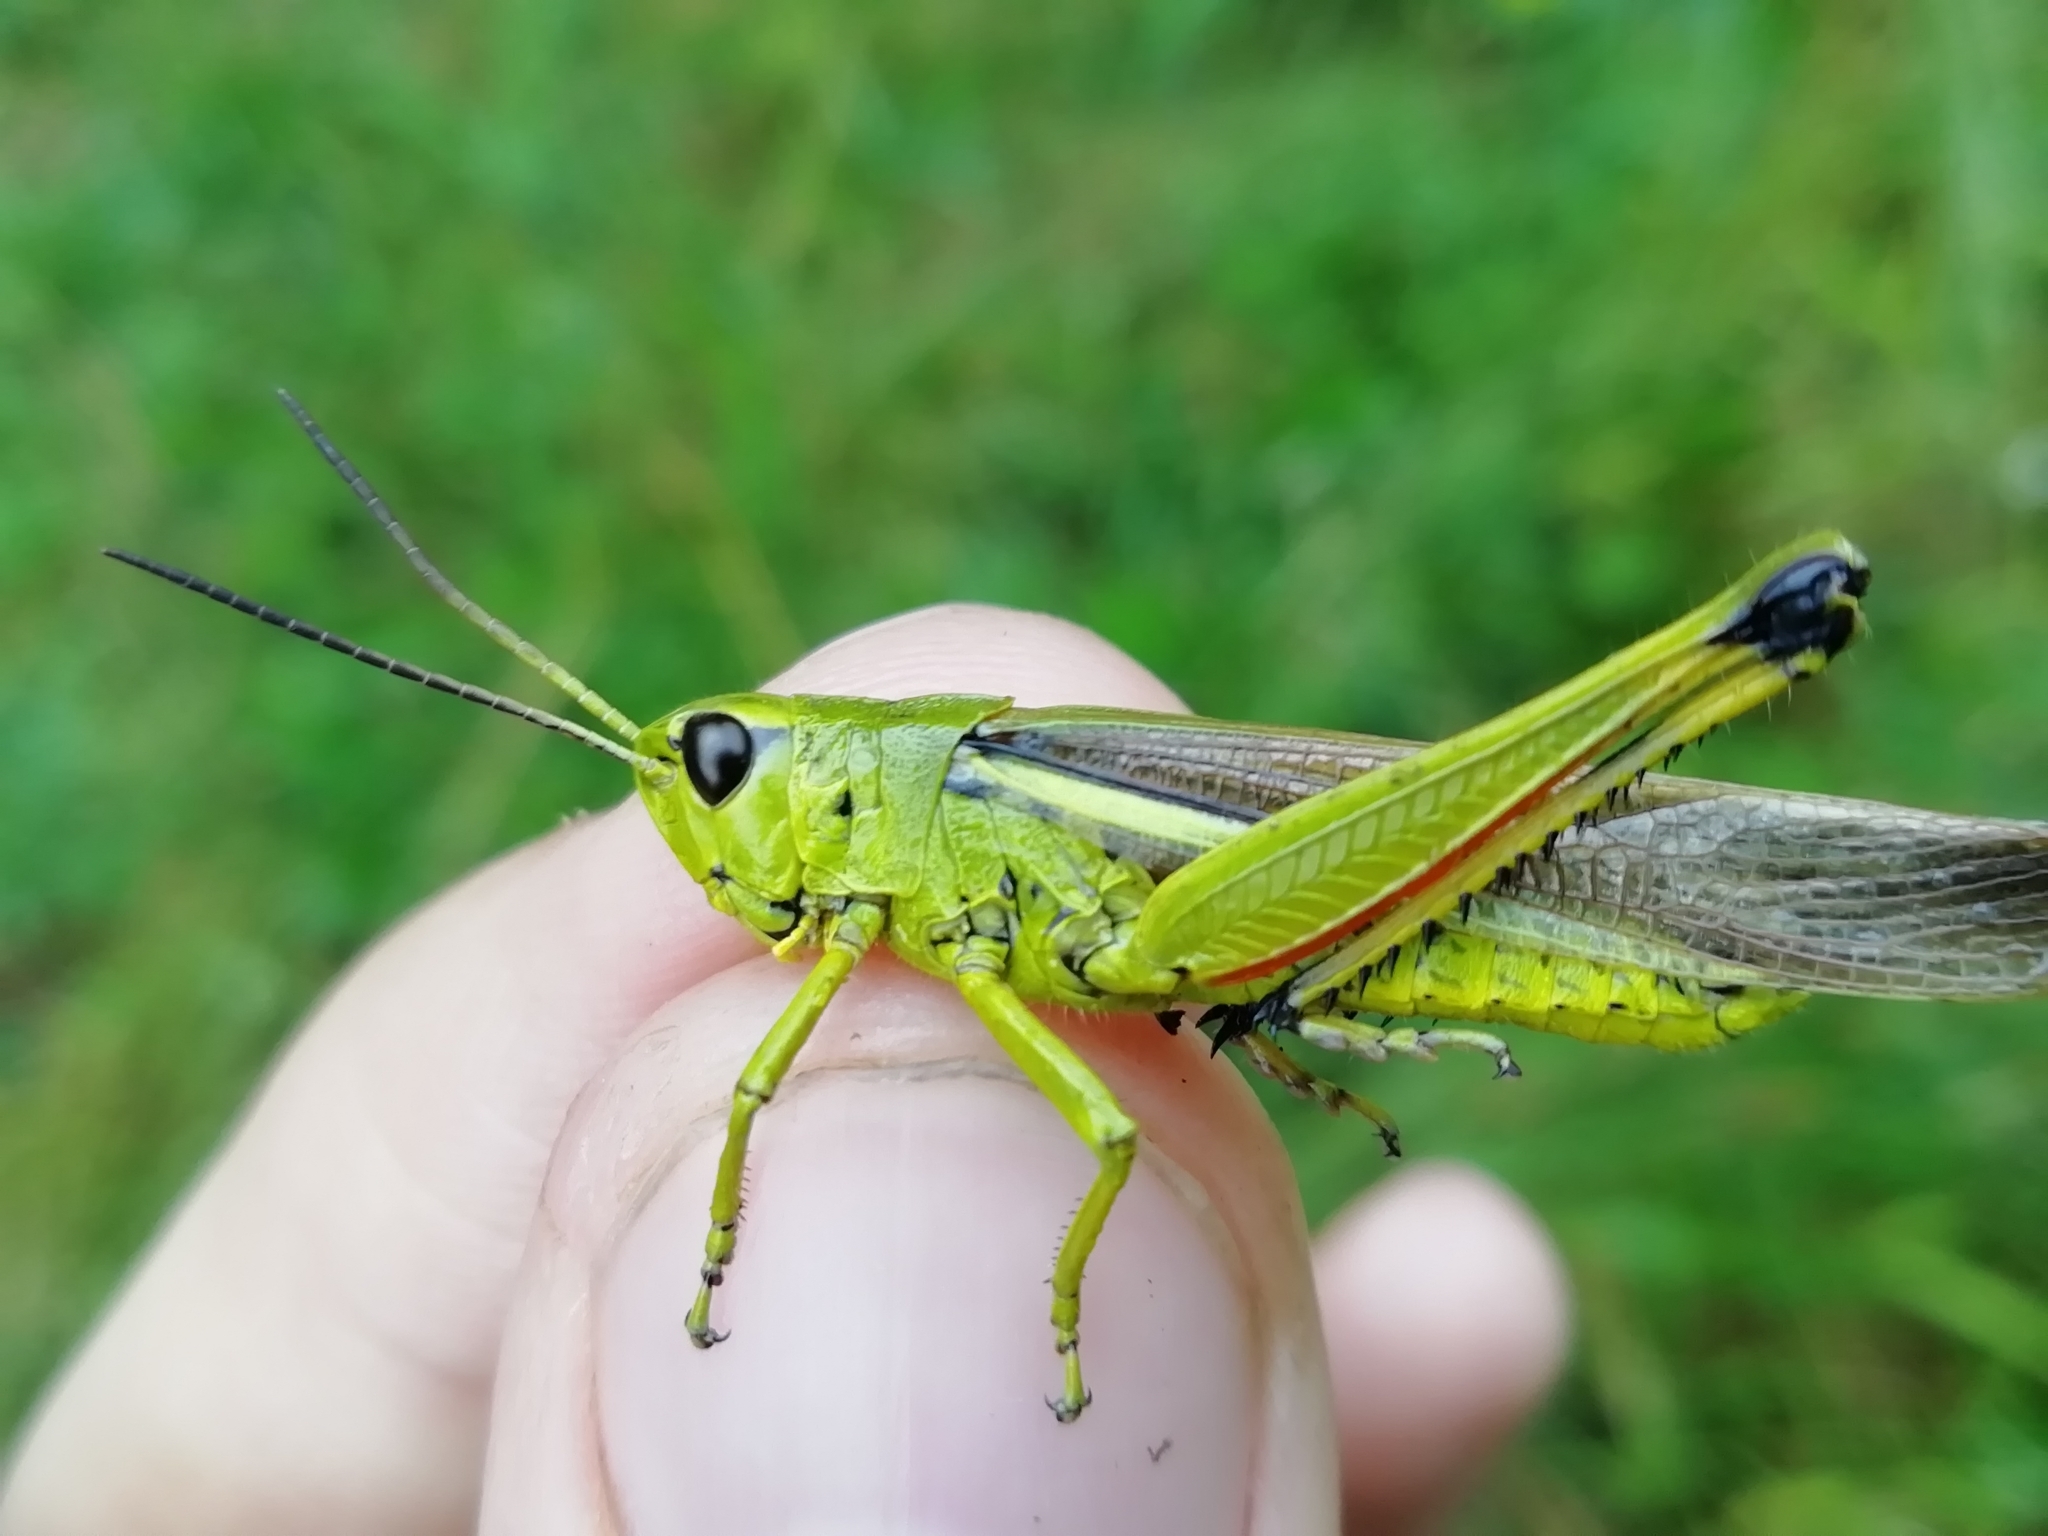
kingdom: Animalia
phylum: Arthropoda
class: Insecta
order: Orthoptera
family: Acrididae
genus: Stethophyma
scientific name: Stethophyma grossum
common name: Large marsh grasshopper
